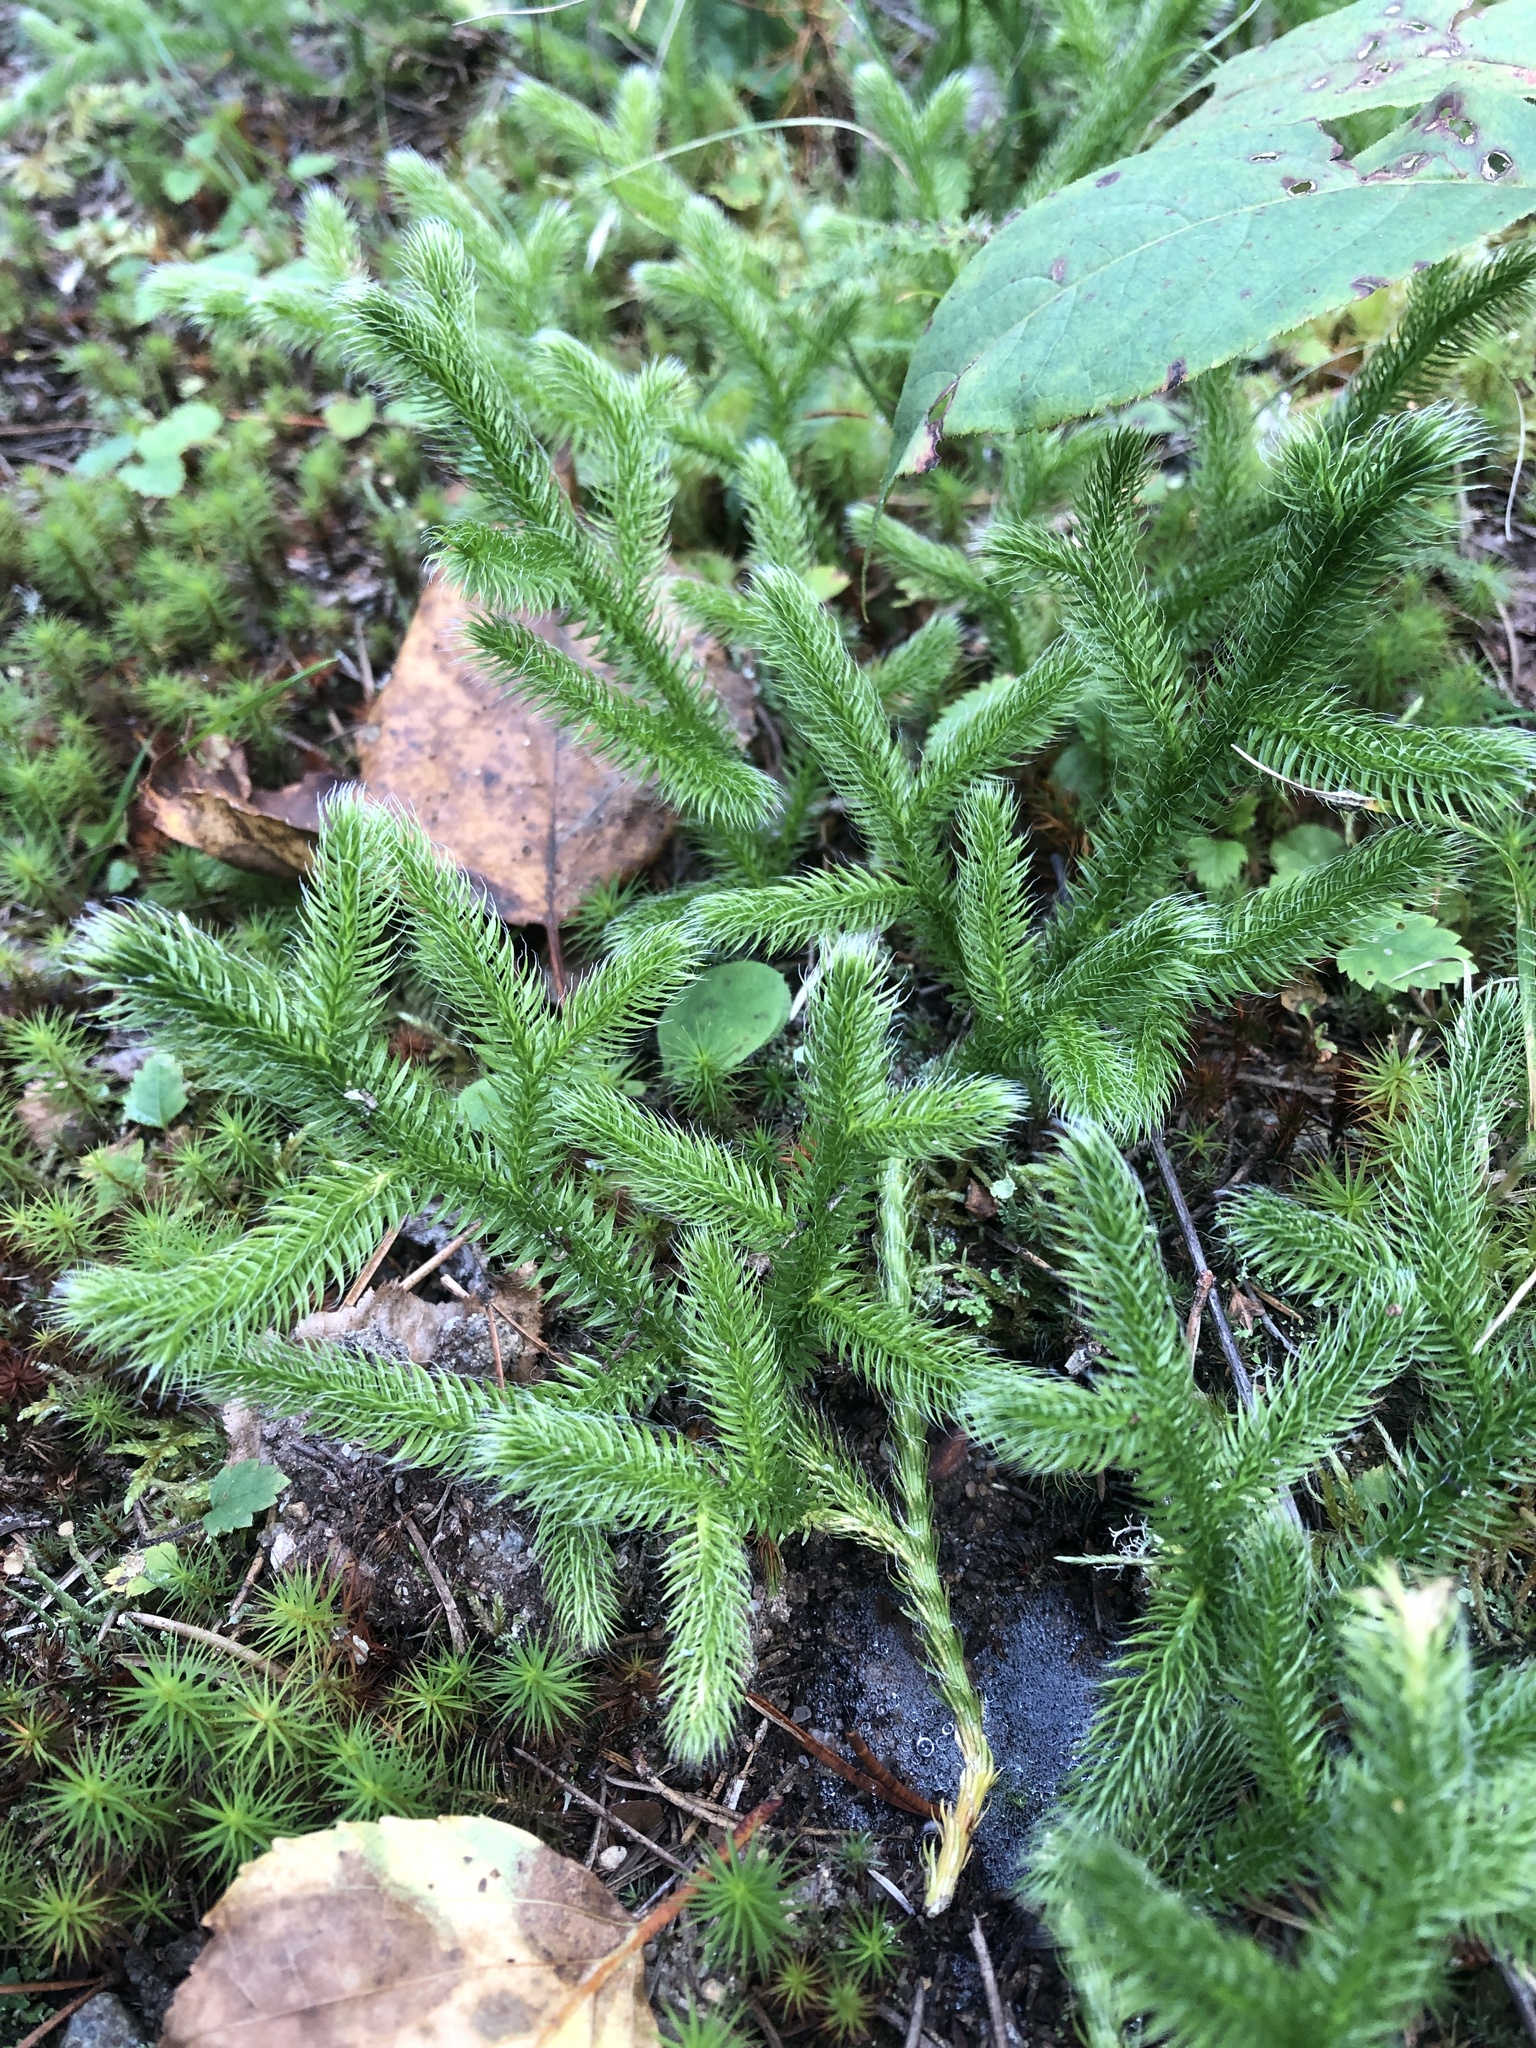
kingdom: Plantae
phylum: Tracheophyta
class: Lycopodiopsida
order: Lycopodiales
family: Lycopodiaceae
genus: Lycopodium
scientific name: Lycopodium clavatum
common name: Stag's-horn clubmoss
